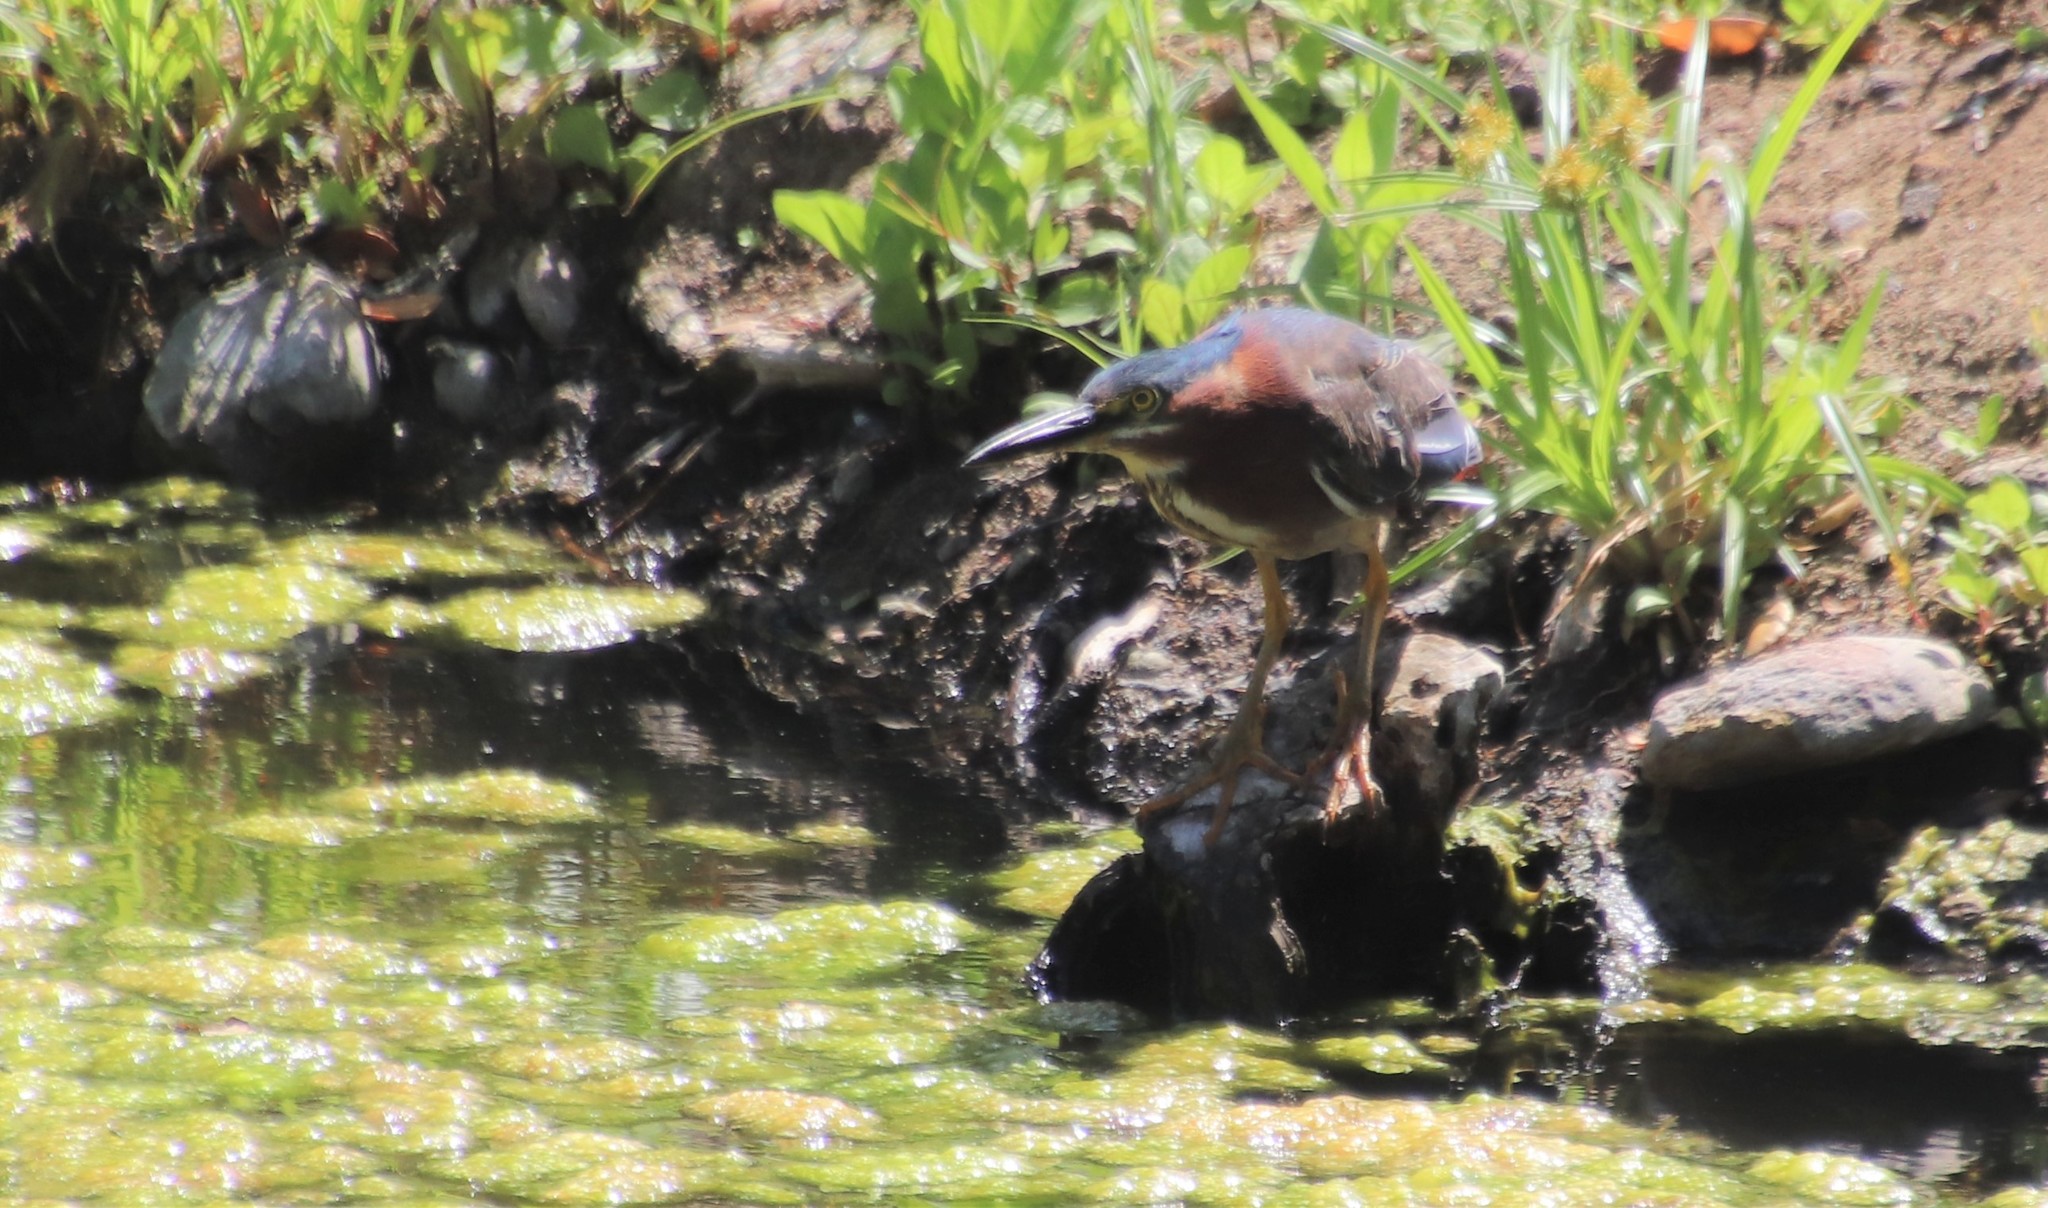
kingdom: Animalia
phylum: Chordata
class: Aves
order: Pelecaniformes
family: Ardeidae
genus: Butorides
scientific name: Butorides virescens
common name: Green heron
